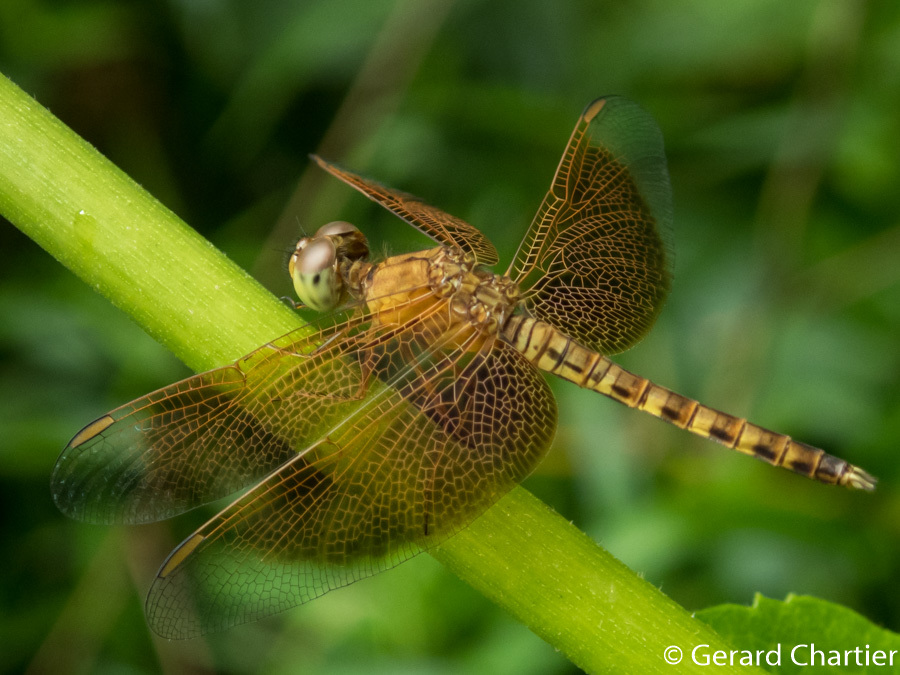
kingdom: Animalia
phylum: Arthropoda
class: Insecta
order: Odonata
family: Libellulidae
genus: Neurothemis
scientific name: Neurothemis fluctuans
